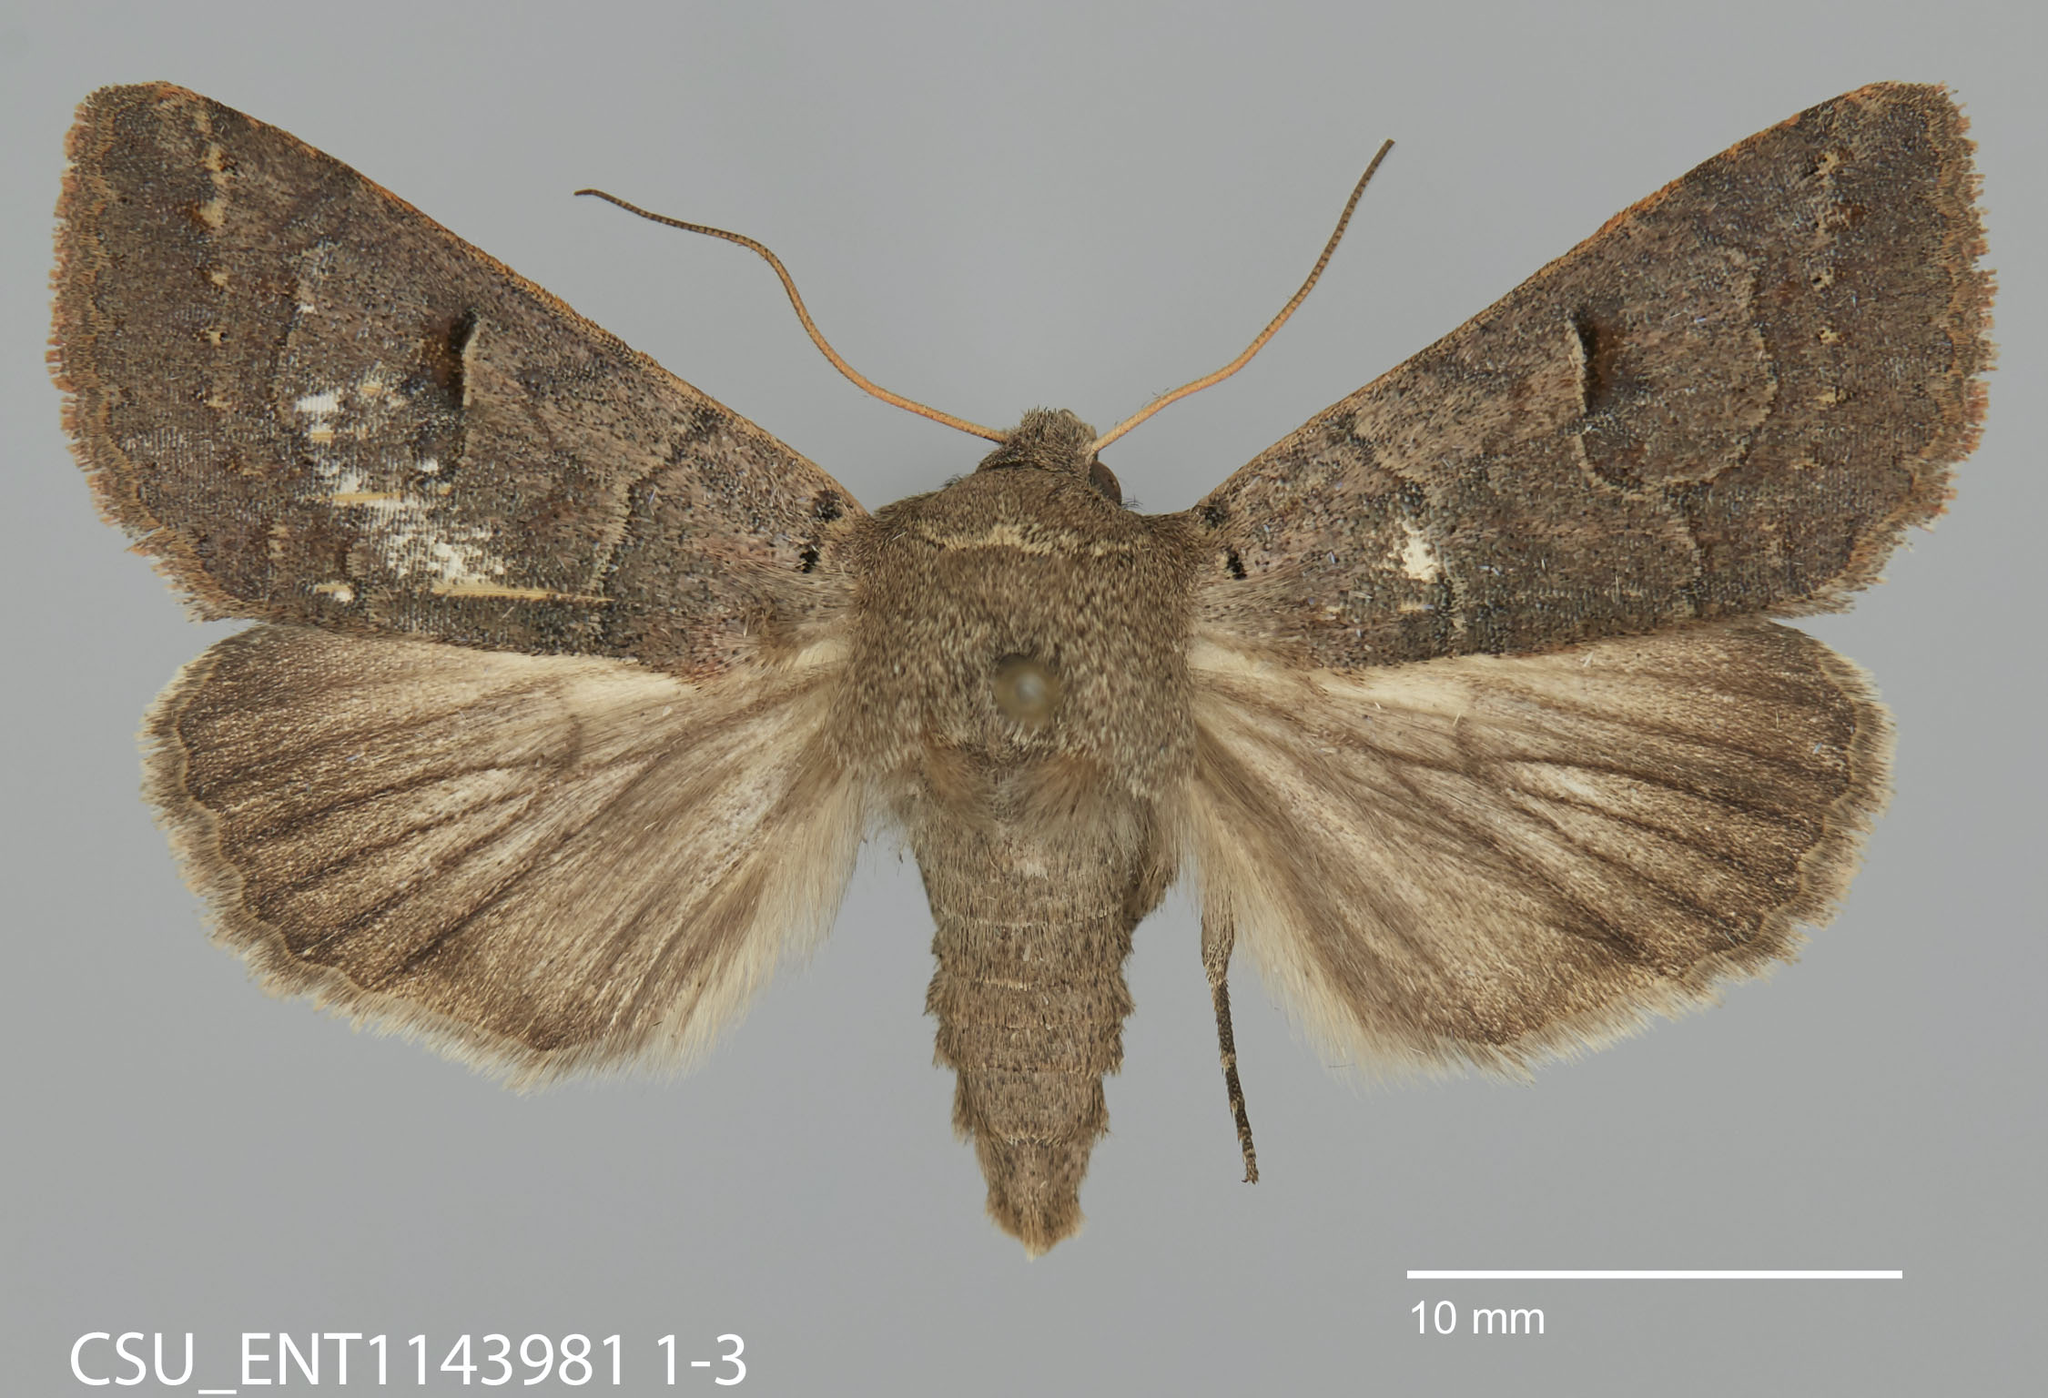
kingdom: Animalia
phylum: Arthropoda
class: Insecta
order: Lepidoptera
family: Erebidae
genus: Cissusa
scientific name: Cissusa indiscreta
